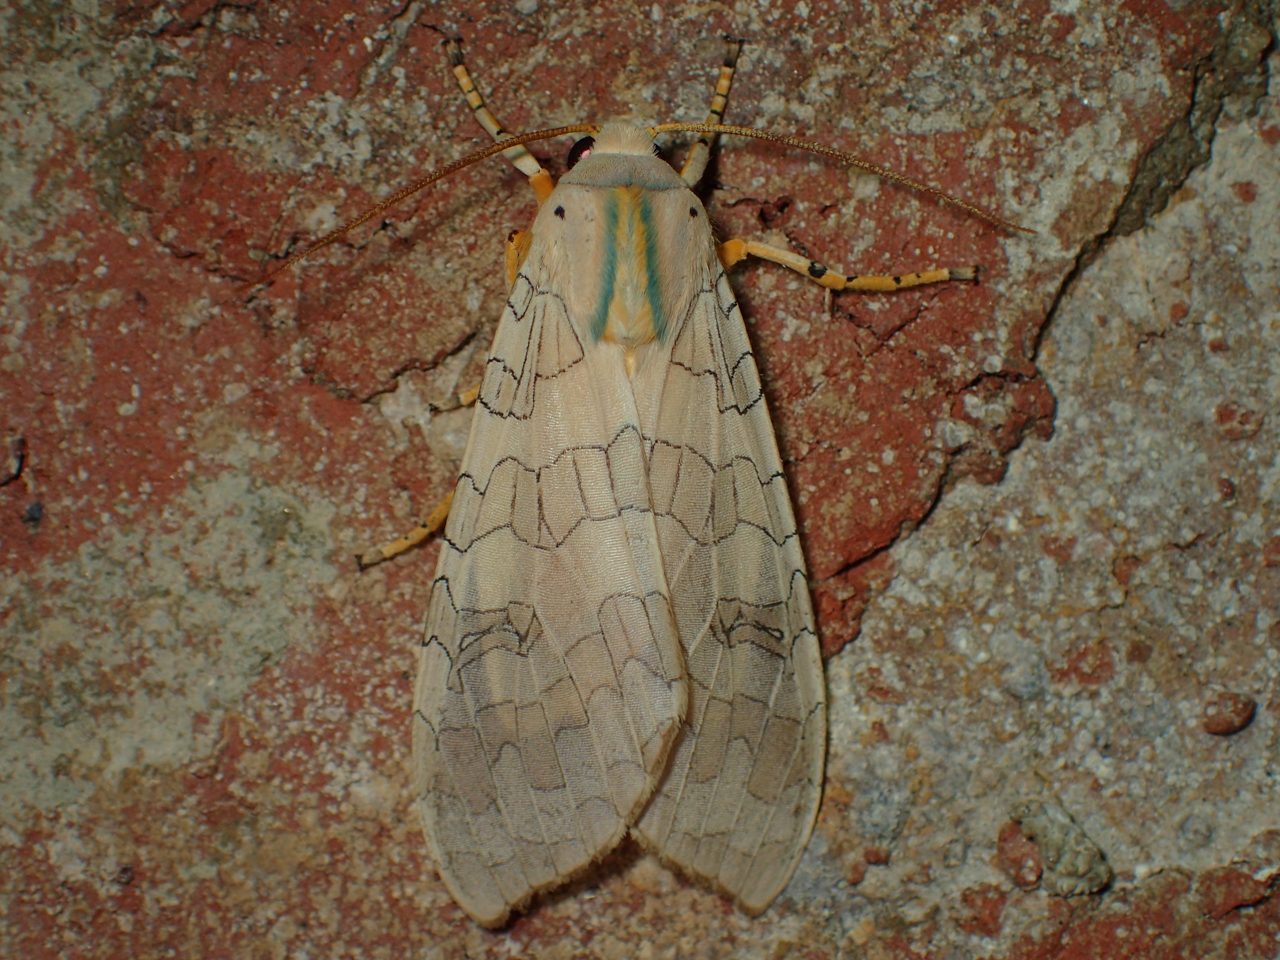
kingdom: Animalia
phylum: Arthropoda
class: Insecta
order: Lepidoptera
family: Erebidae
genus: Halysidota
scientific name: Halysidota
